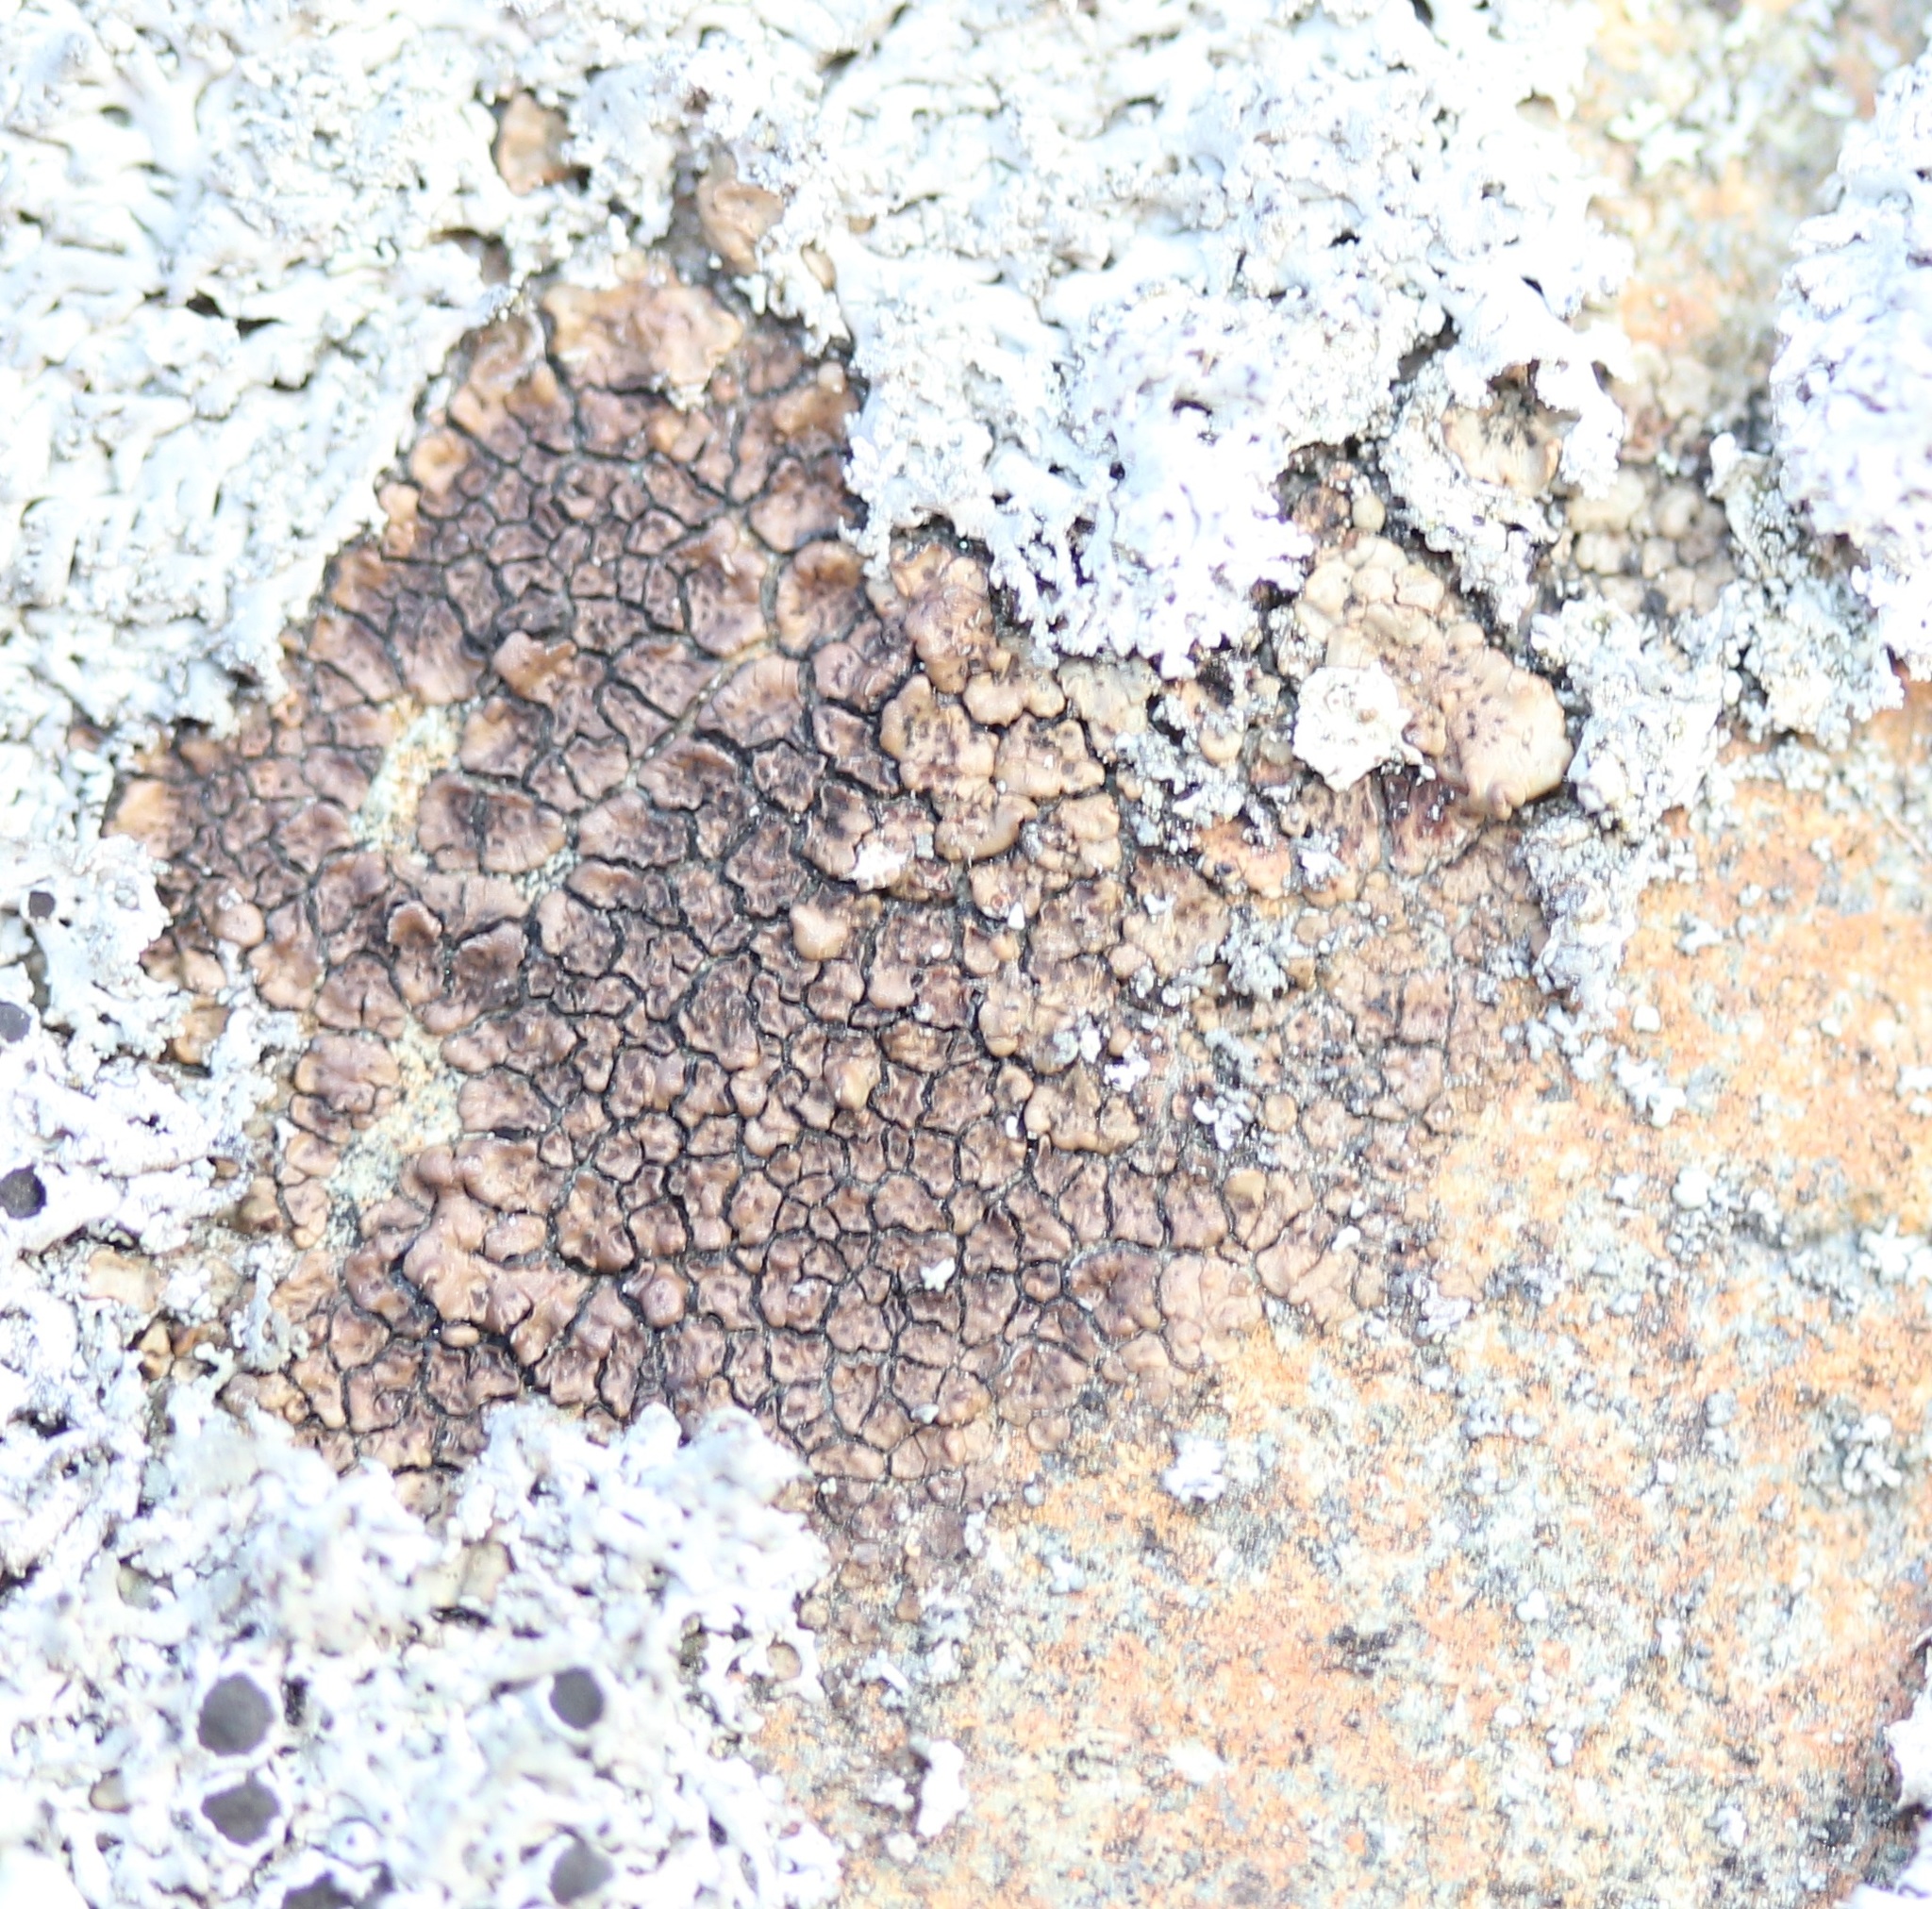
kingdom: Fungi
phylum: Ascomycota
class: Lecanoromycetes
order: Acarosporales
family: Acarosporaceae
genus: Acarospora
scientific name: Acarospora fuscata
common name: Brown cobblestone lichen
